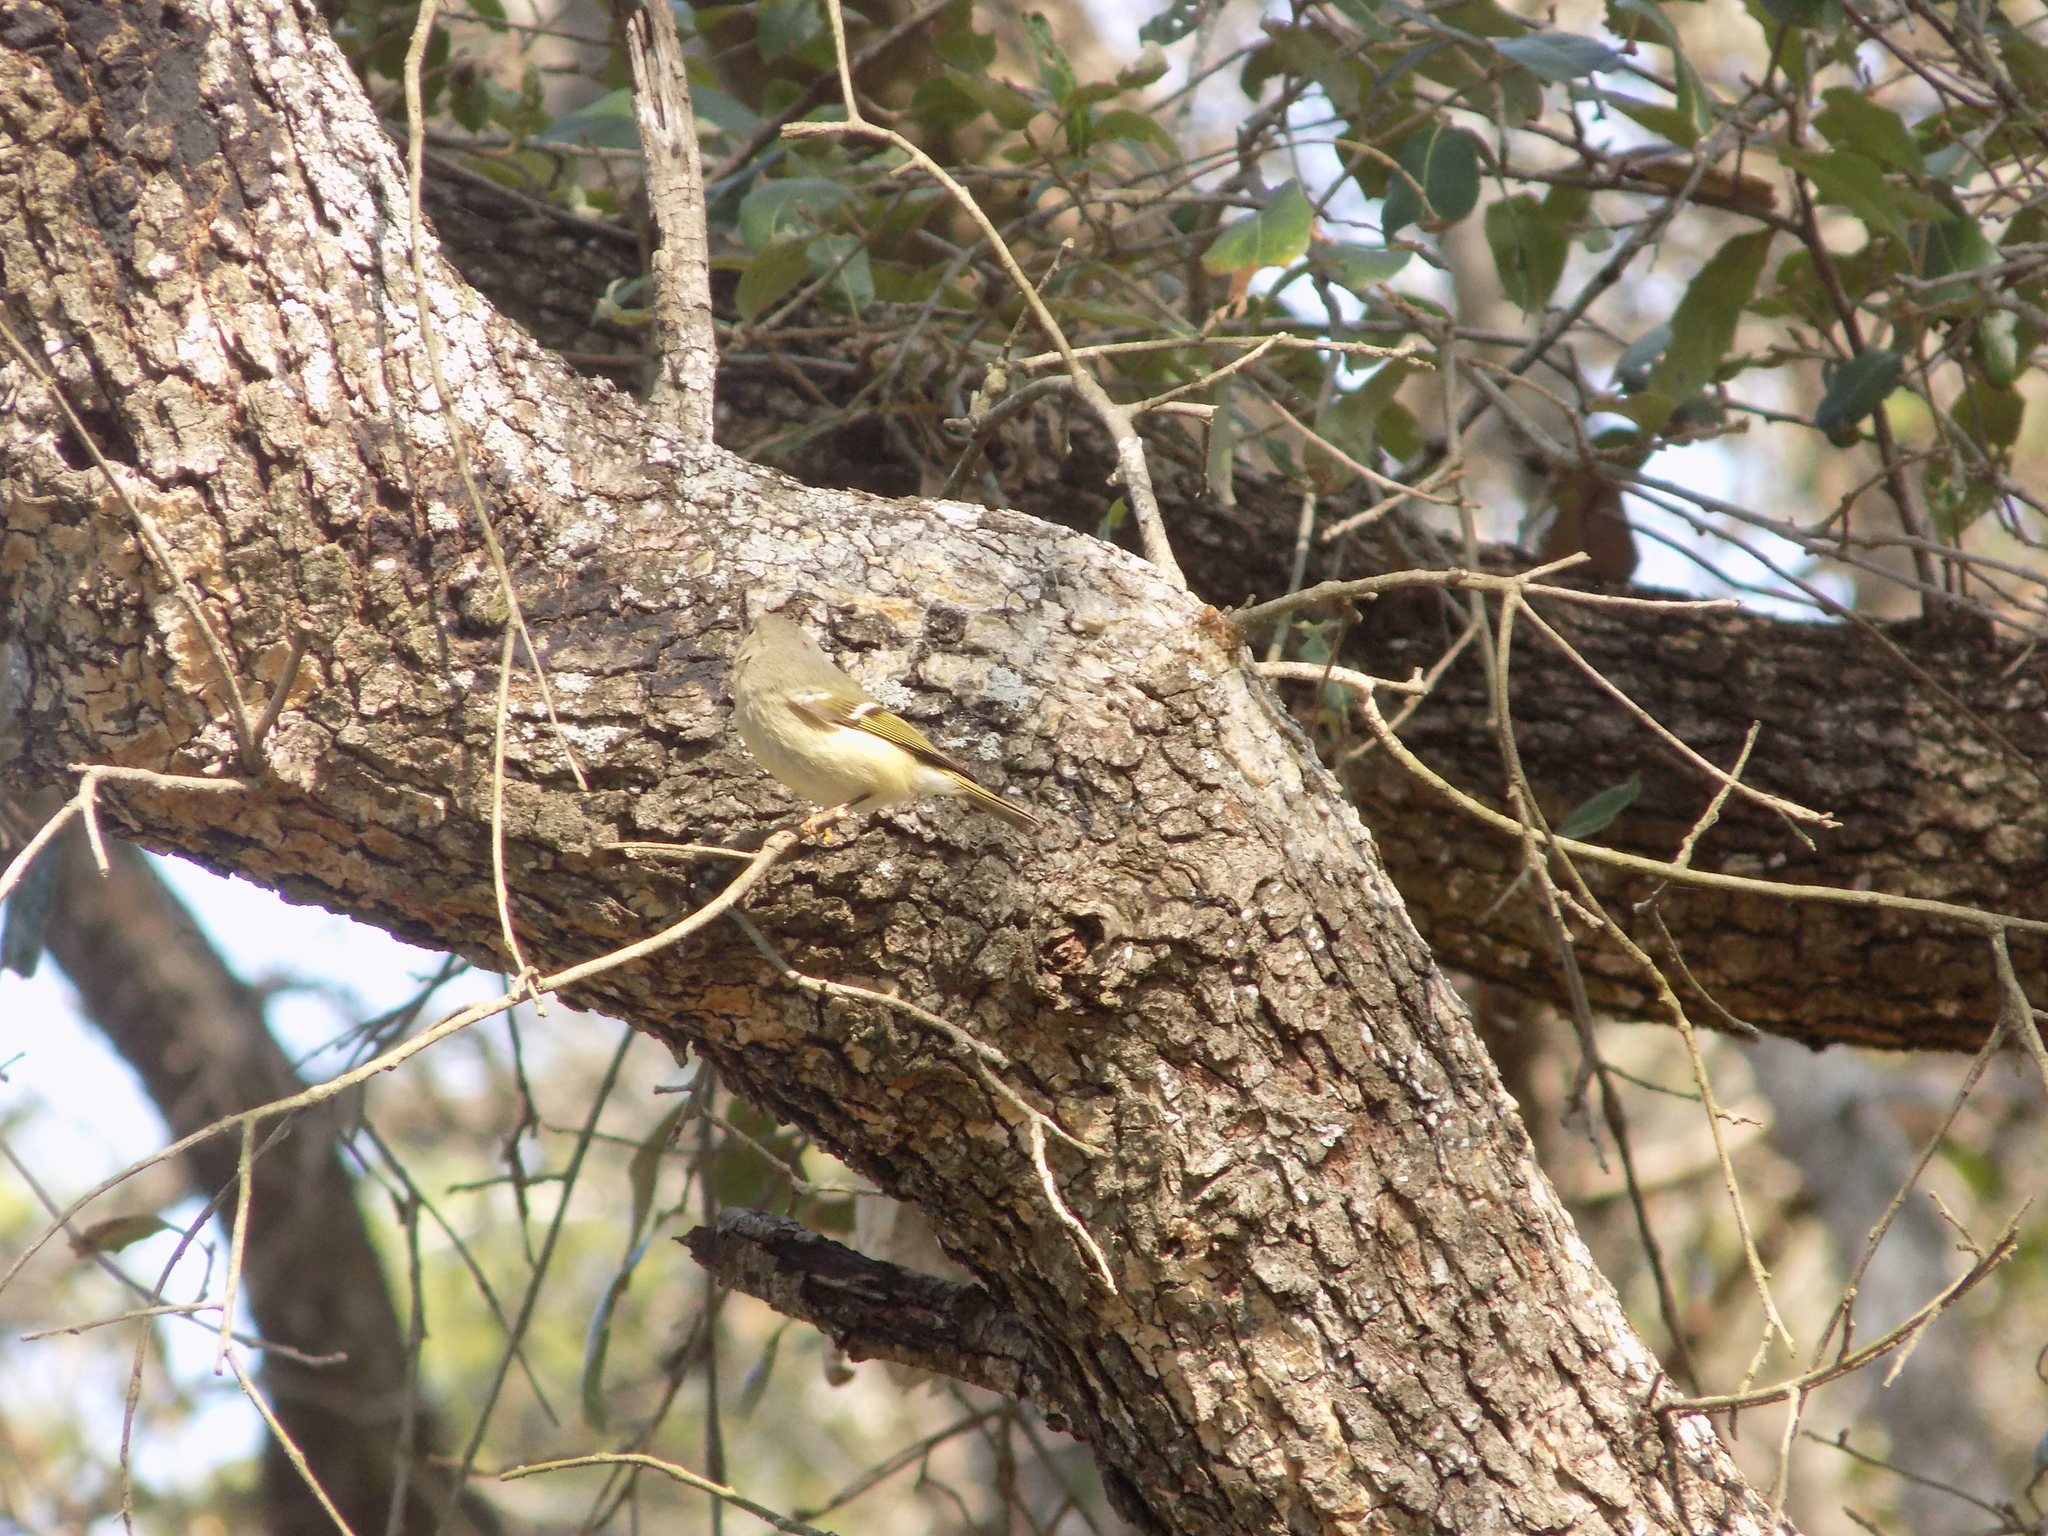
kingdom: Animalia
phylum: Chordata
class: Aves
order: Passeriformes
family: Regulidae
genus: Regulus
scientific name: Regulus calendula
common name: Ruby-crowned kinglet
